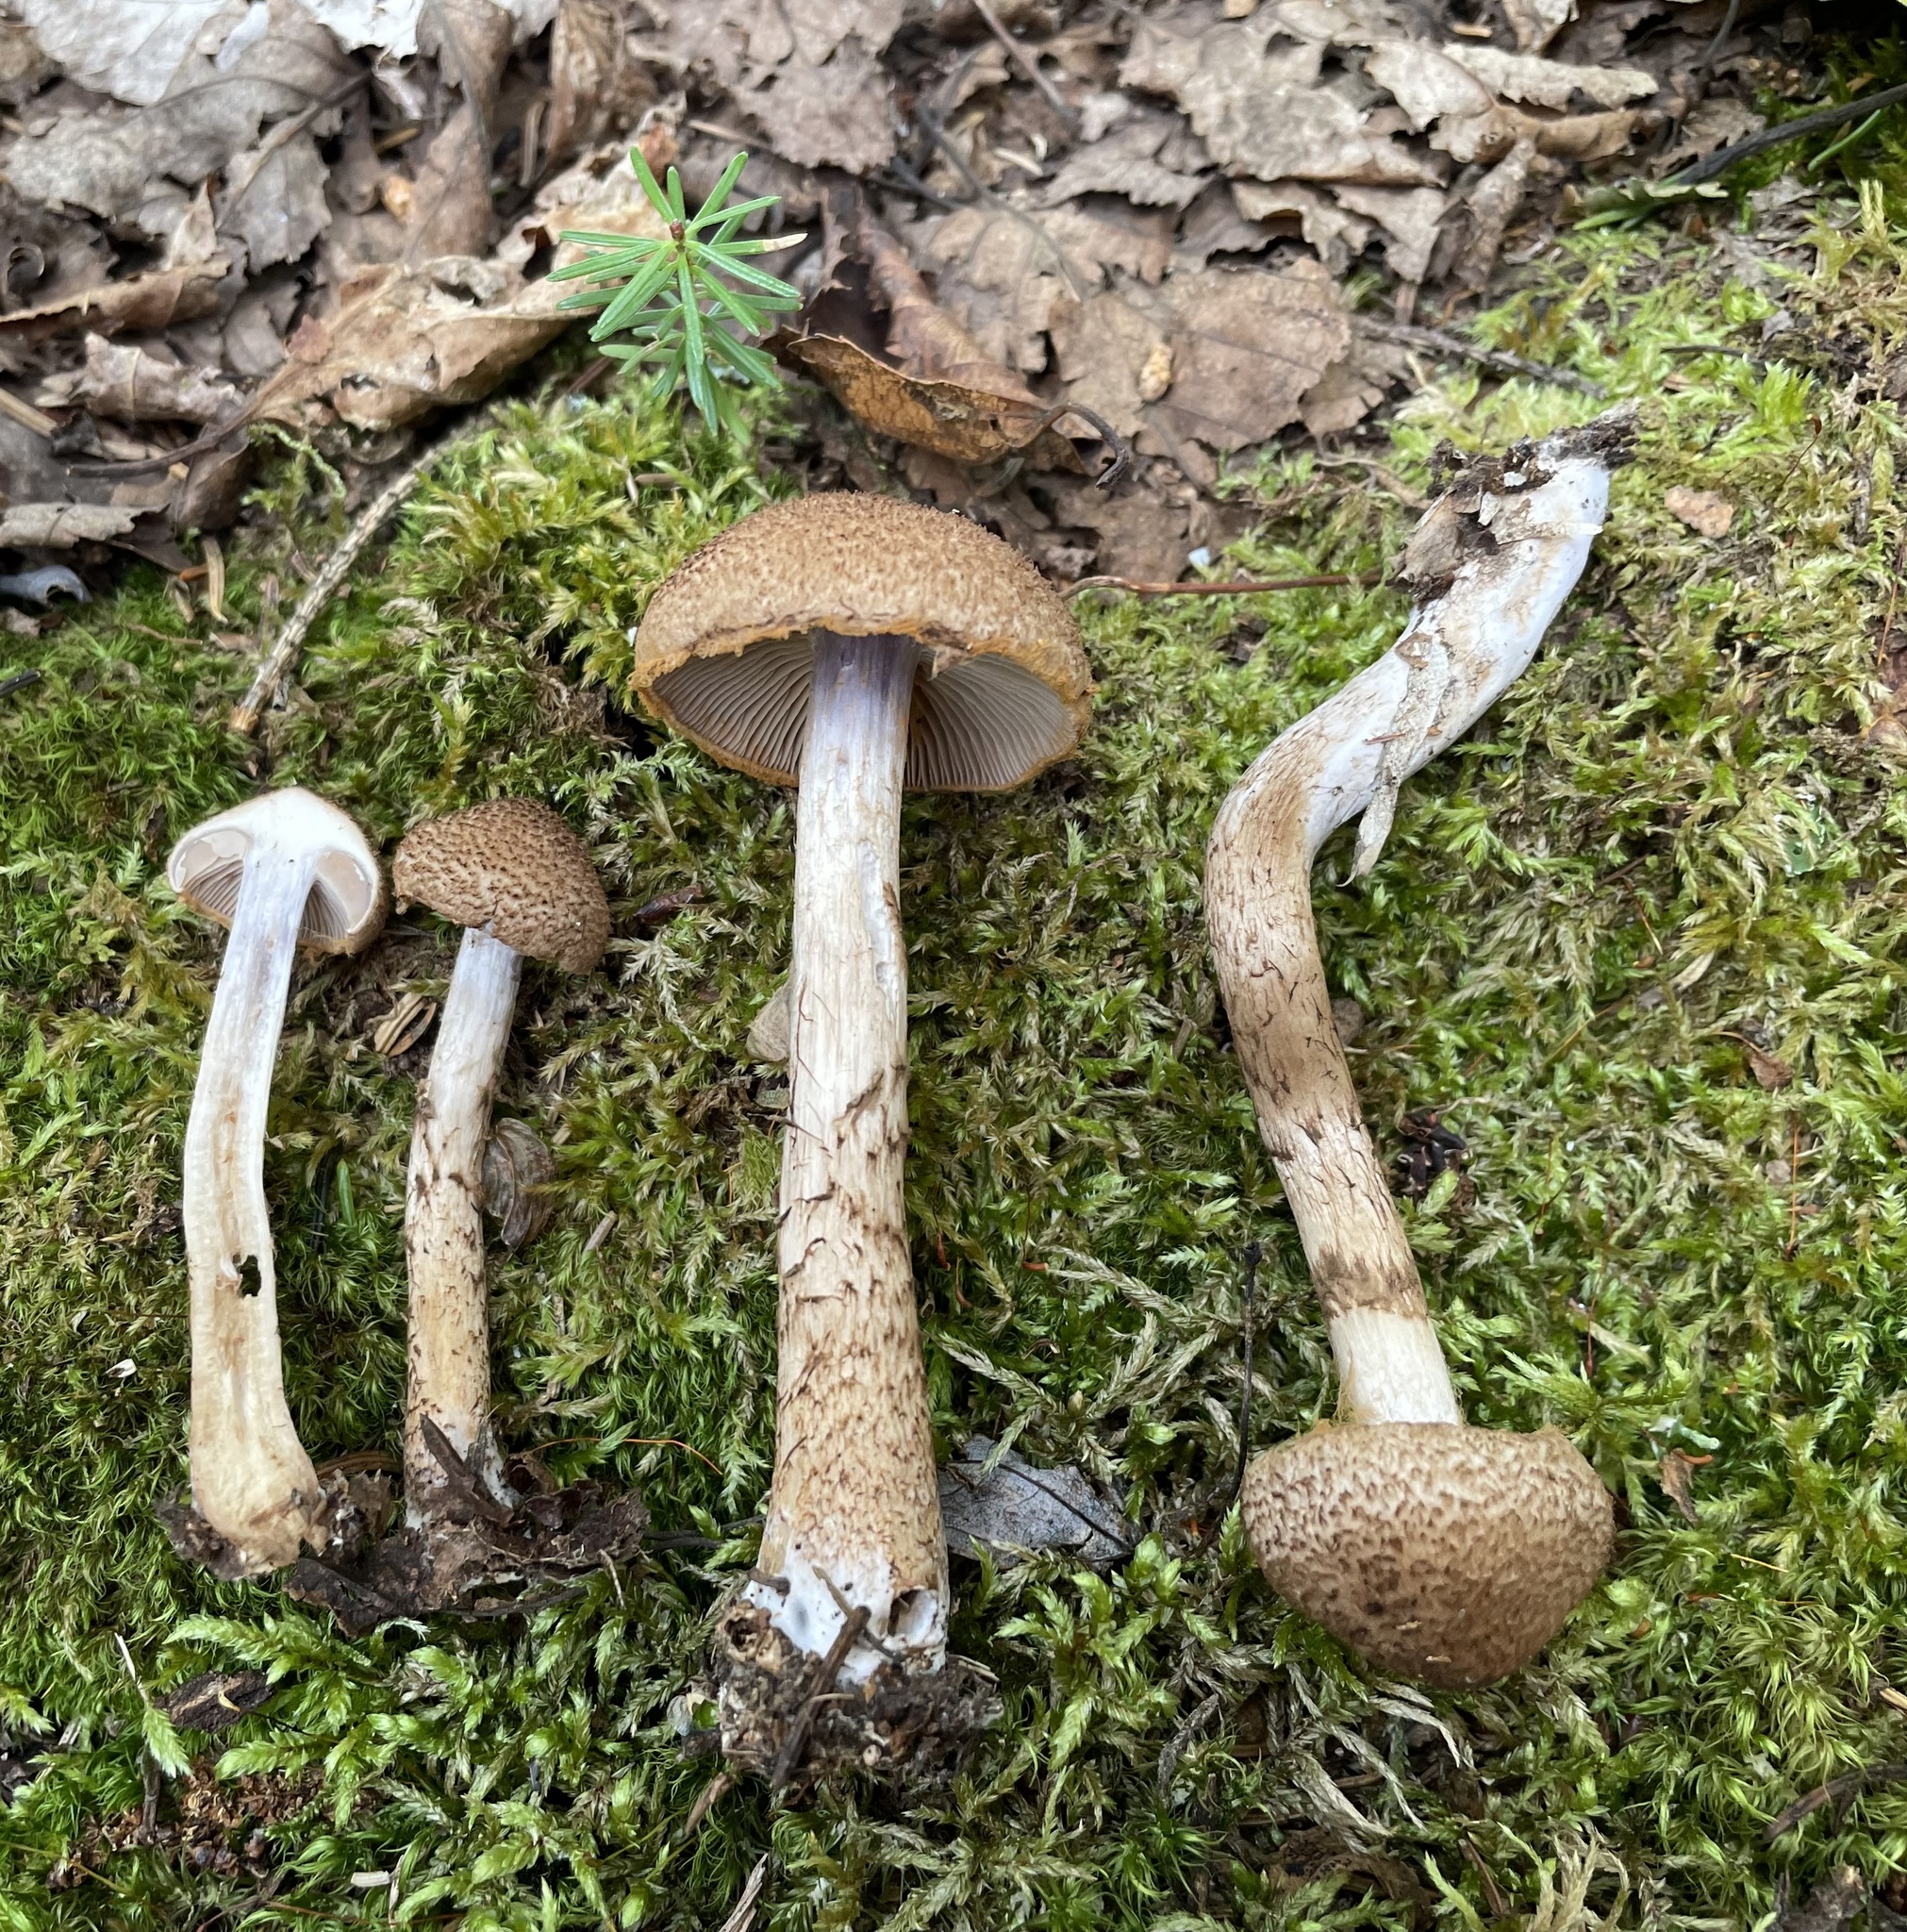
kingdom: Fungi
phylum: Basidiomycota
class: Agaricomycetes
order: Agaricales
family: Cortinariaceae
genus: Cortinarius
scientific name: Cortinarius pholideus
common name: Scaly webcap
